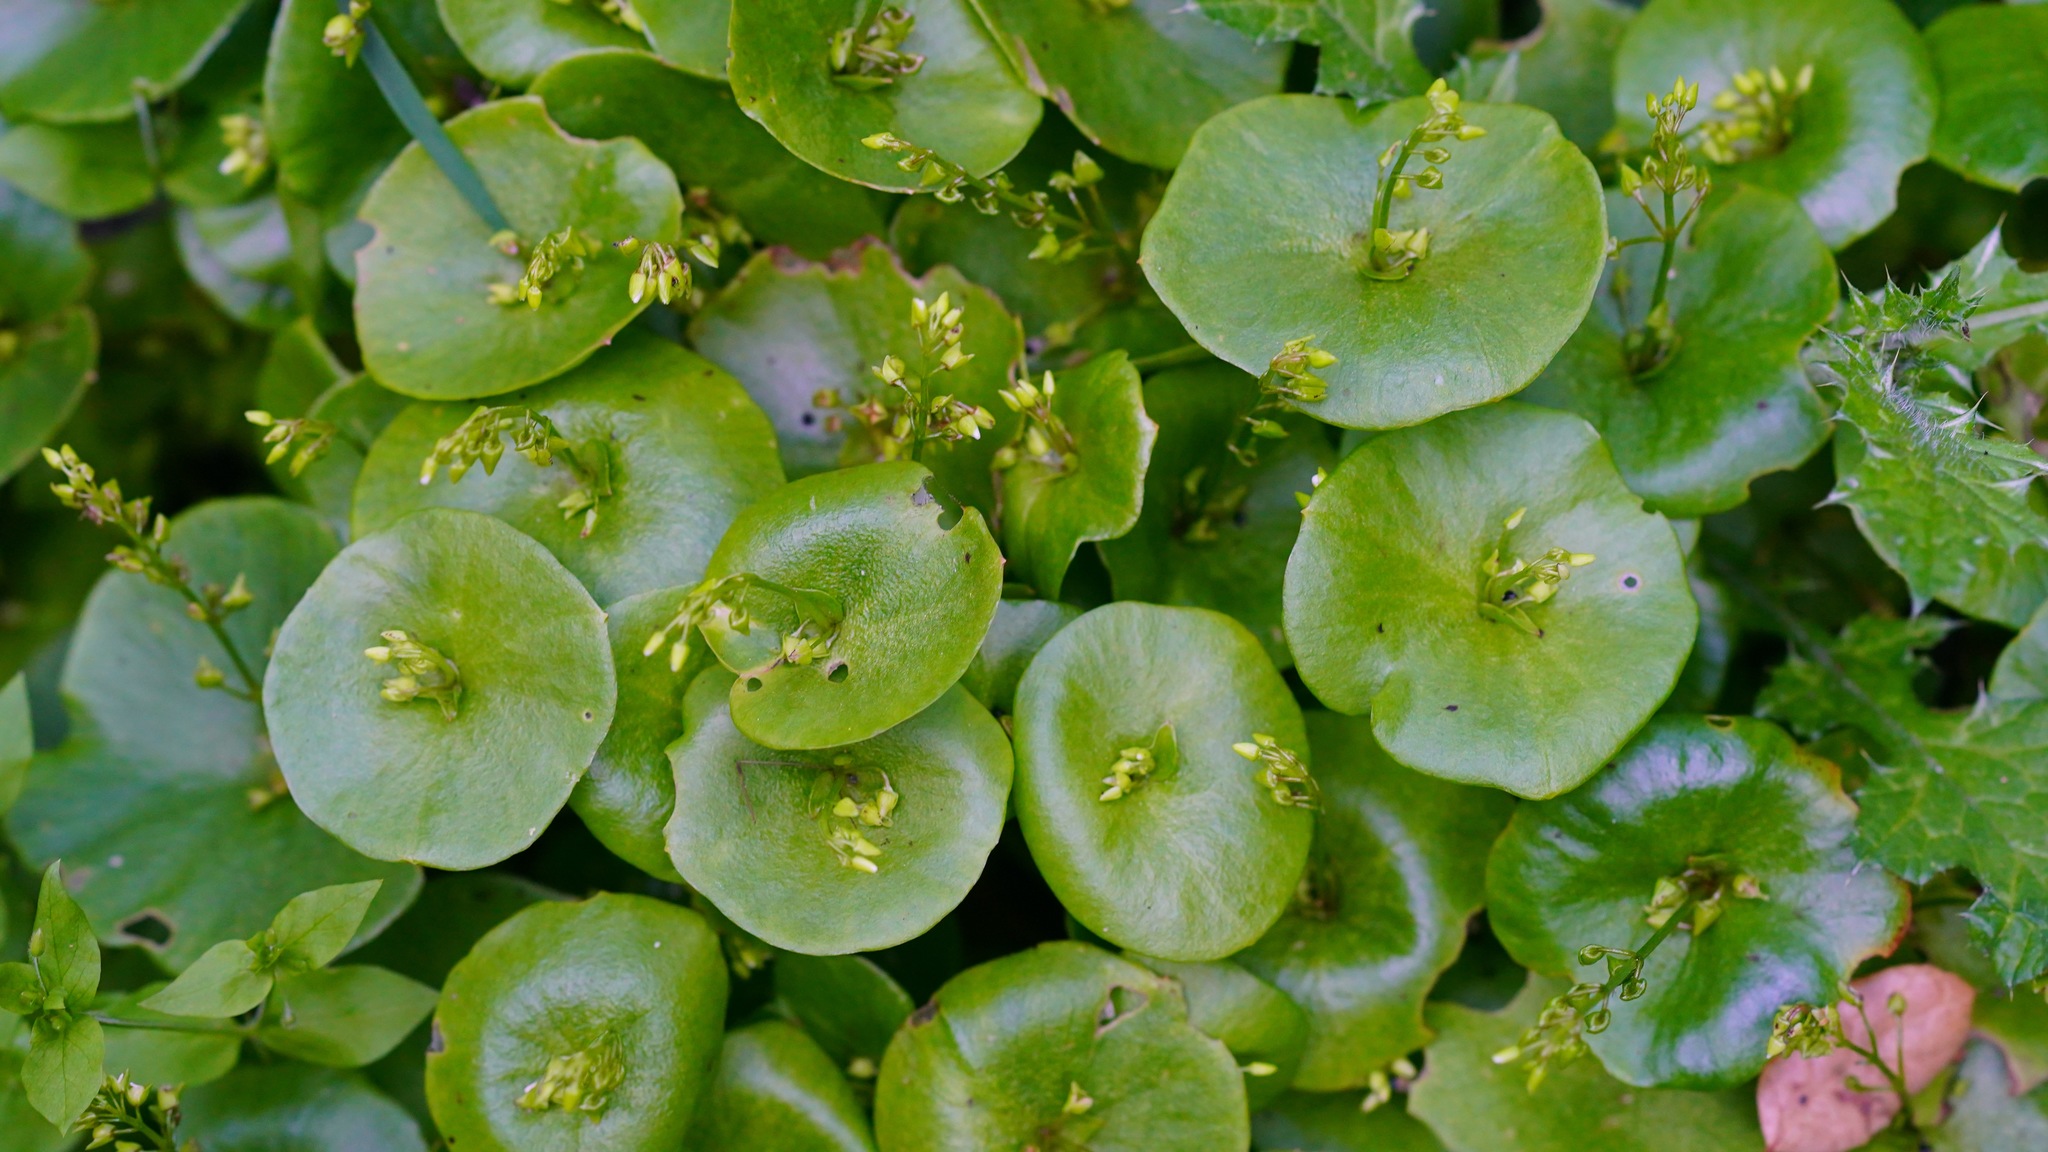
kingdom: Plantae
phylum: Tracheophyta
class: Magnoliopsida
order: Caryophyllales
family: Montiaceae
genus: Claytonia
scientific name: Claytonia perfoliata
